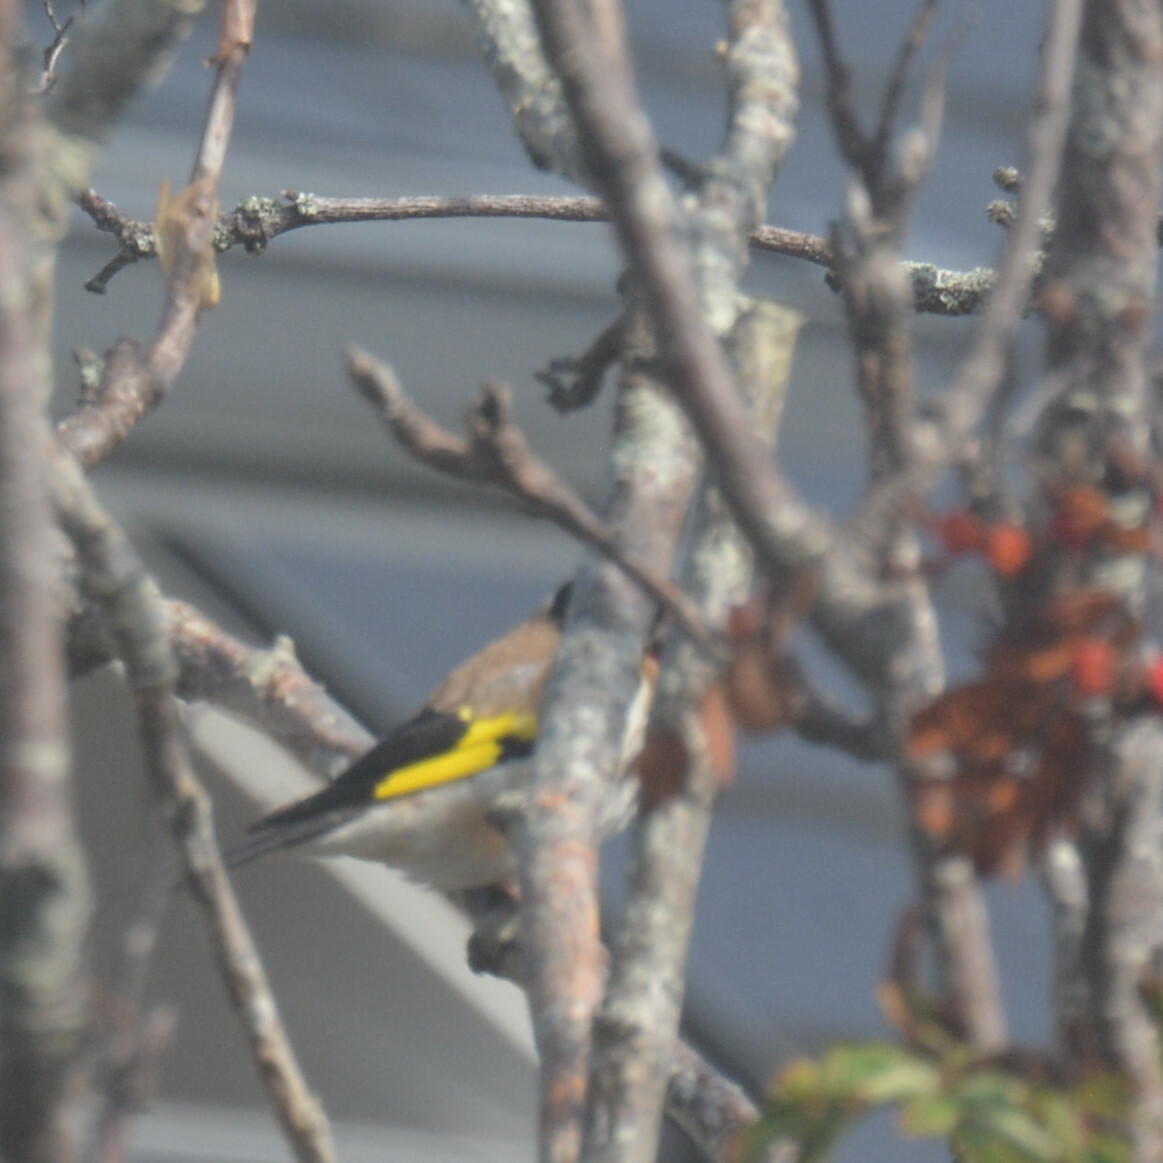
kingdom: Animalia
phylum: Chordata
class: Aves
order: Passeriformes
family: Fringillidae
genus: Carduelis
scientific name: Carduelis carduelis
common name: European goldfinch
